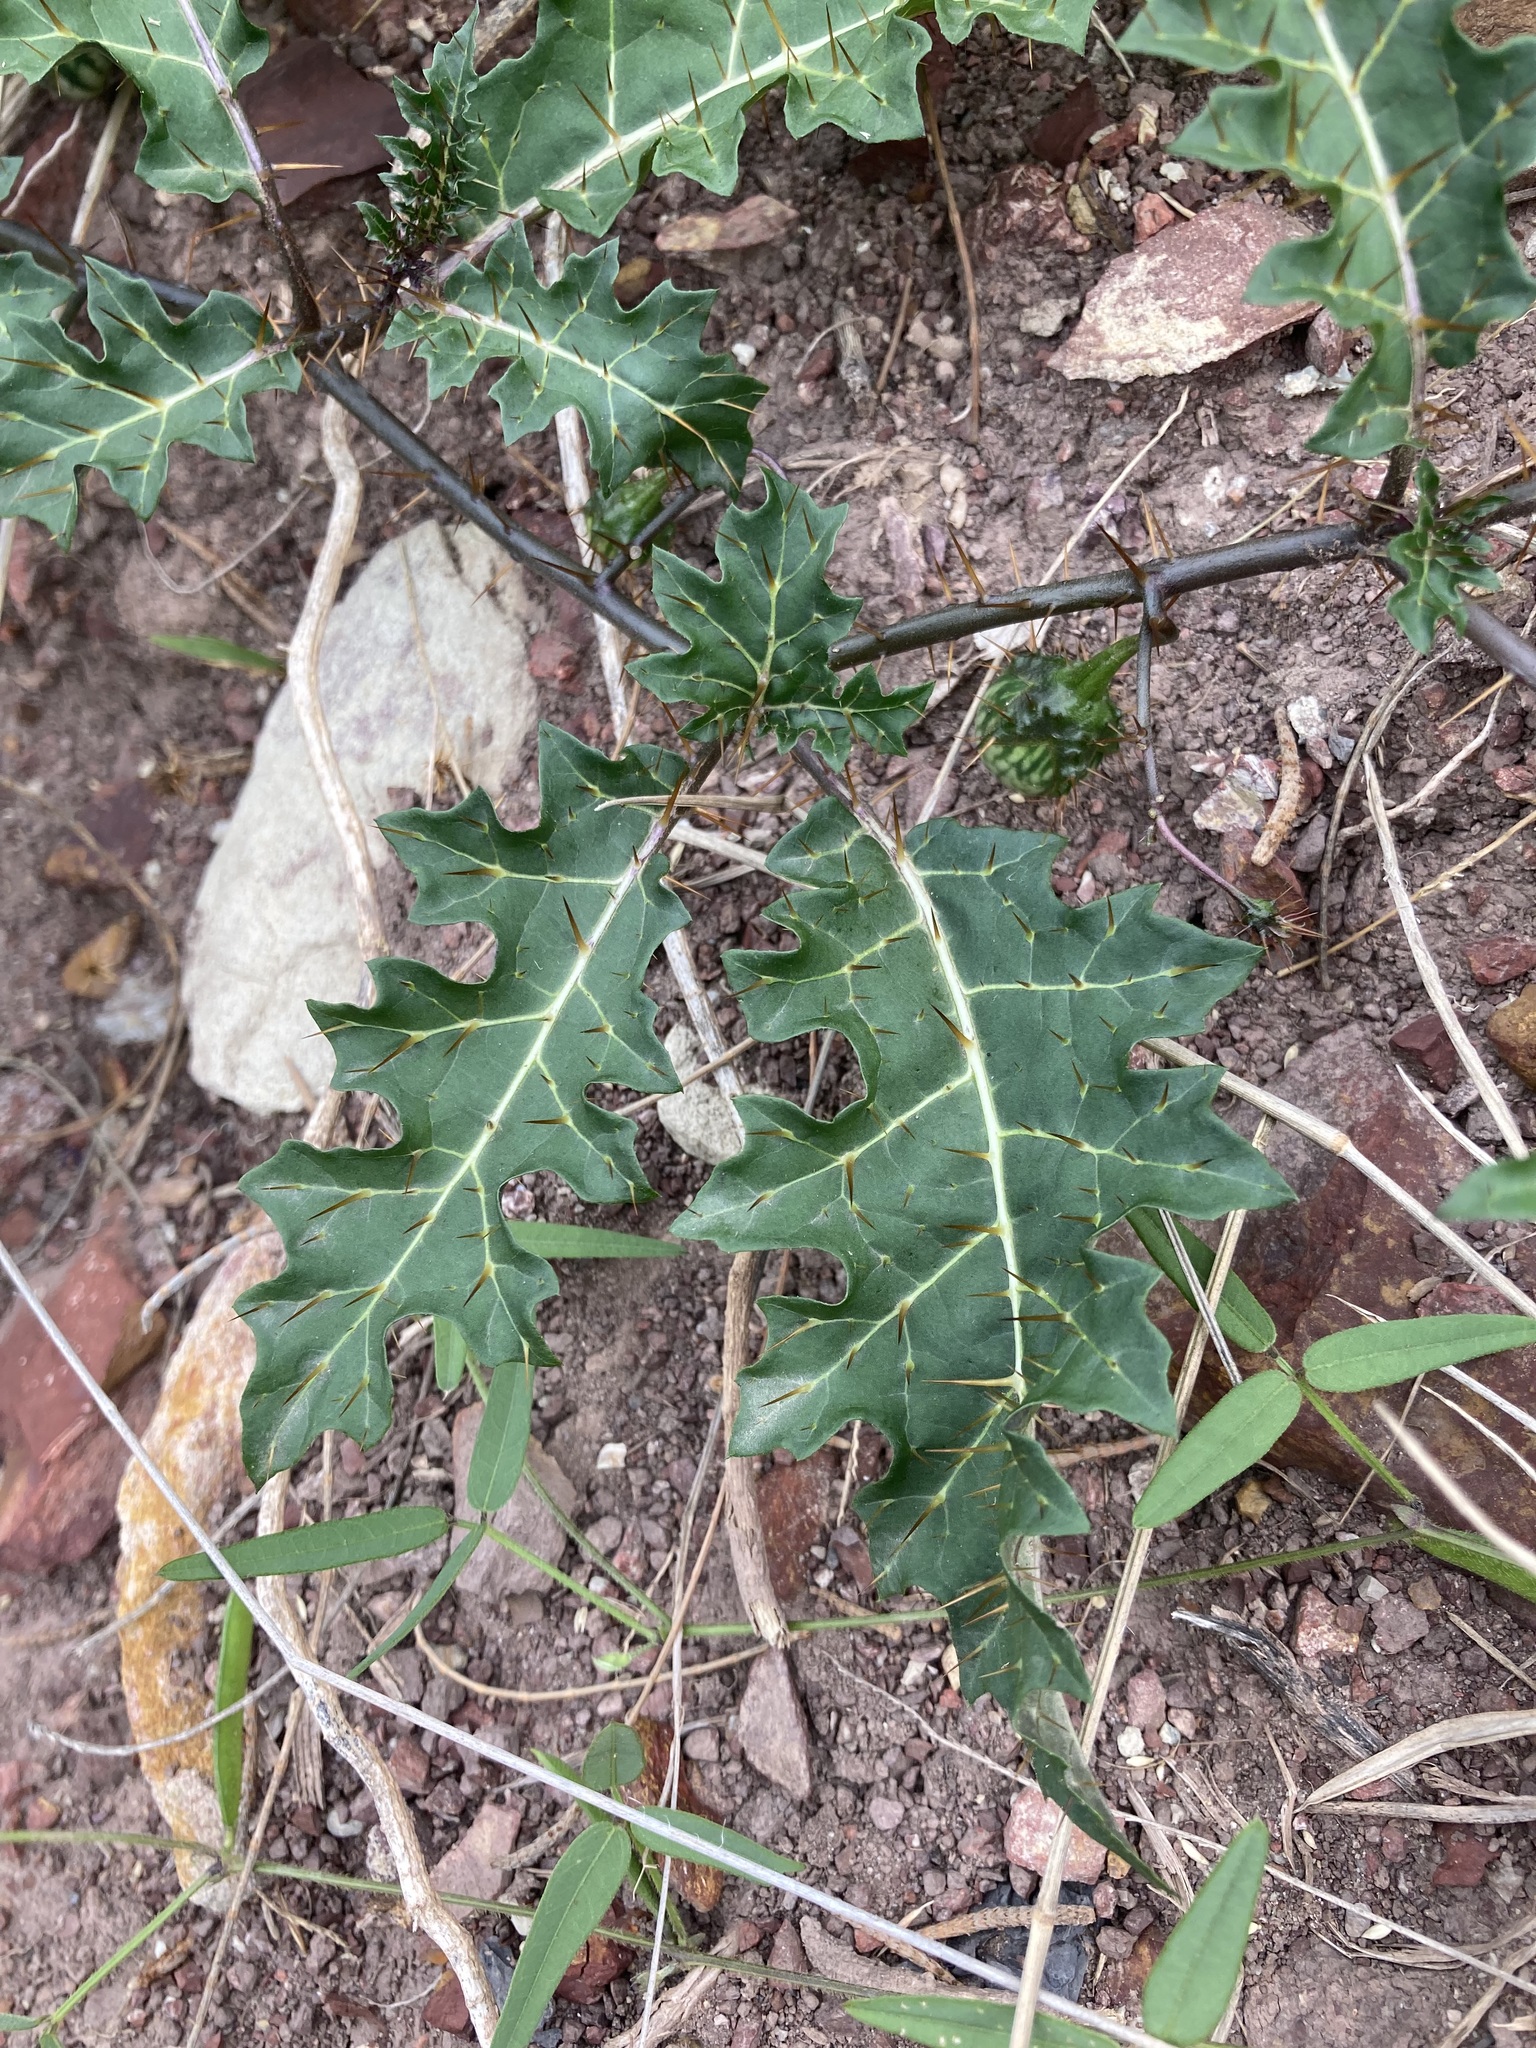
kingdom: Plantae
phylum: Tracheophyta
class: Magnoliopsida
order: Solanales
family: Solanaceae
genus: Solanum
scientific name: Solanum prinophyllum
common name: Forest nightshade
